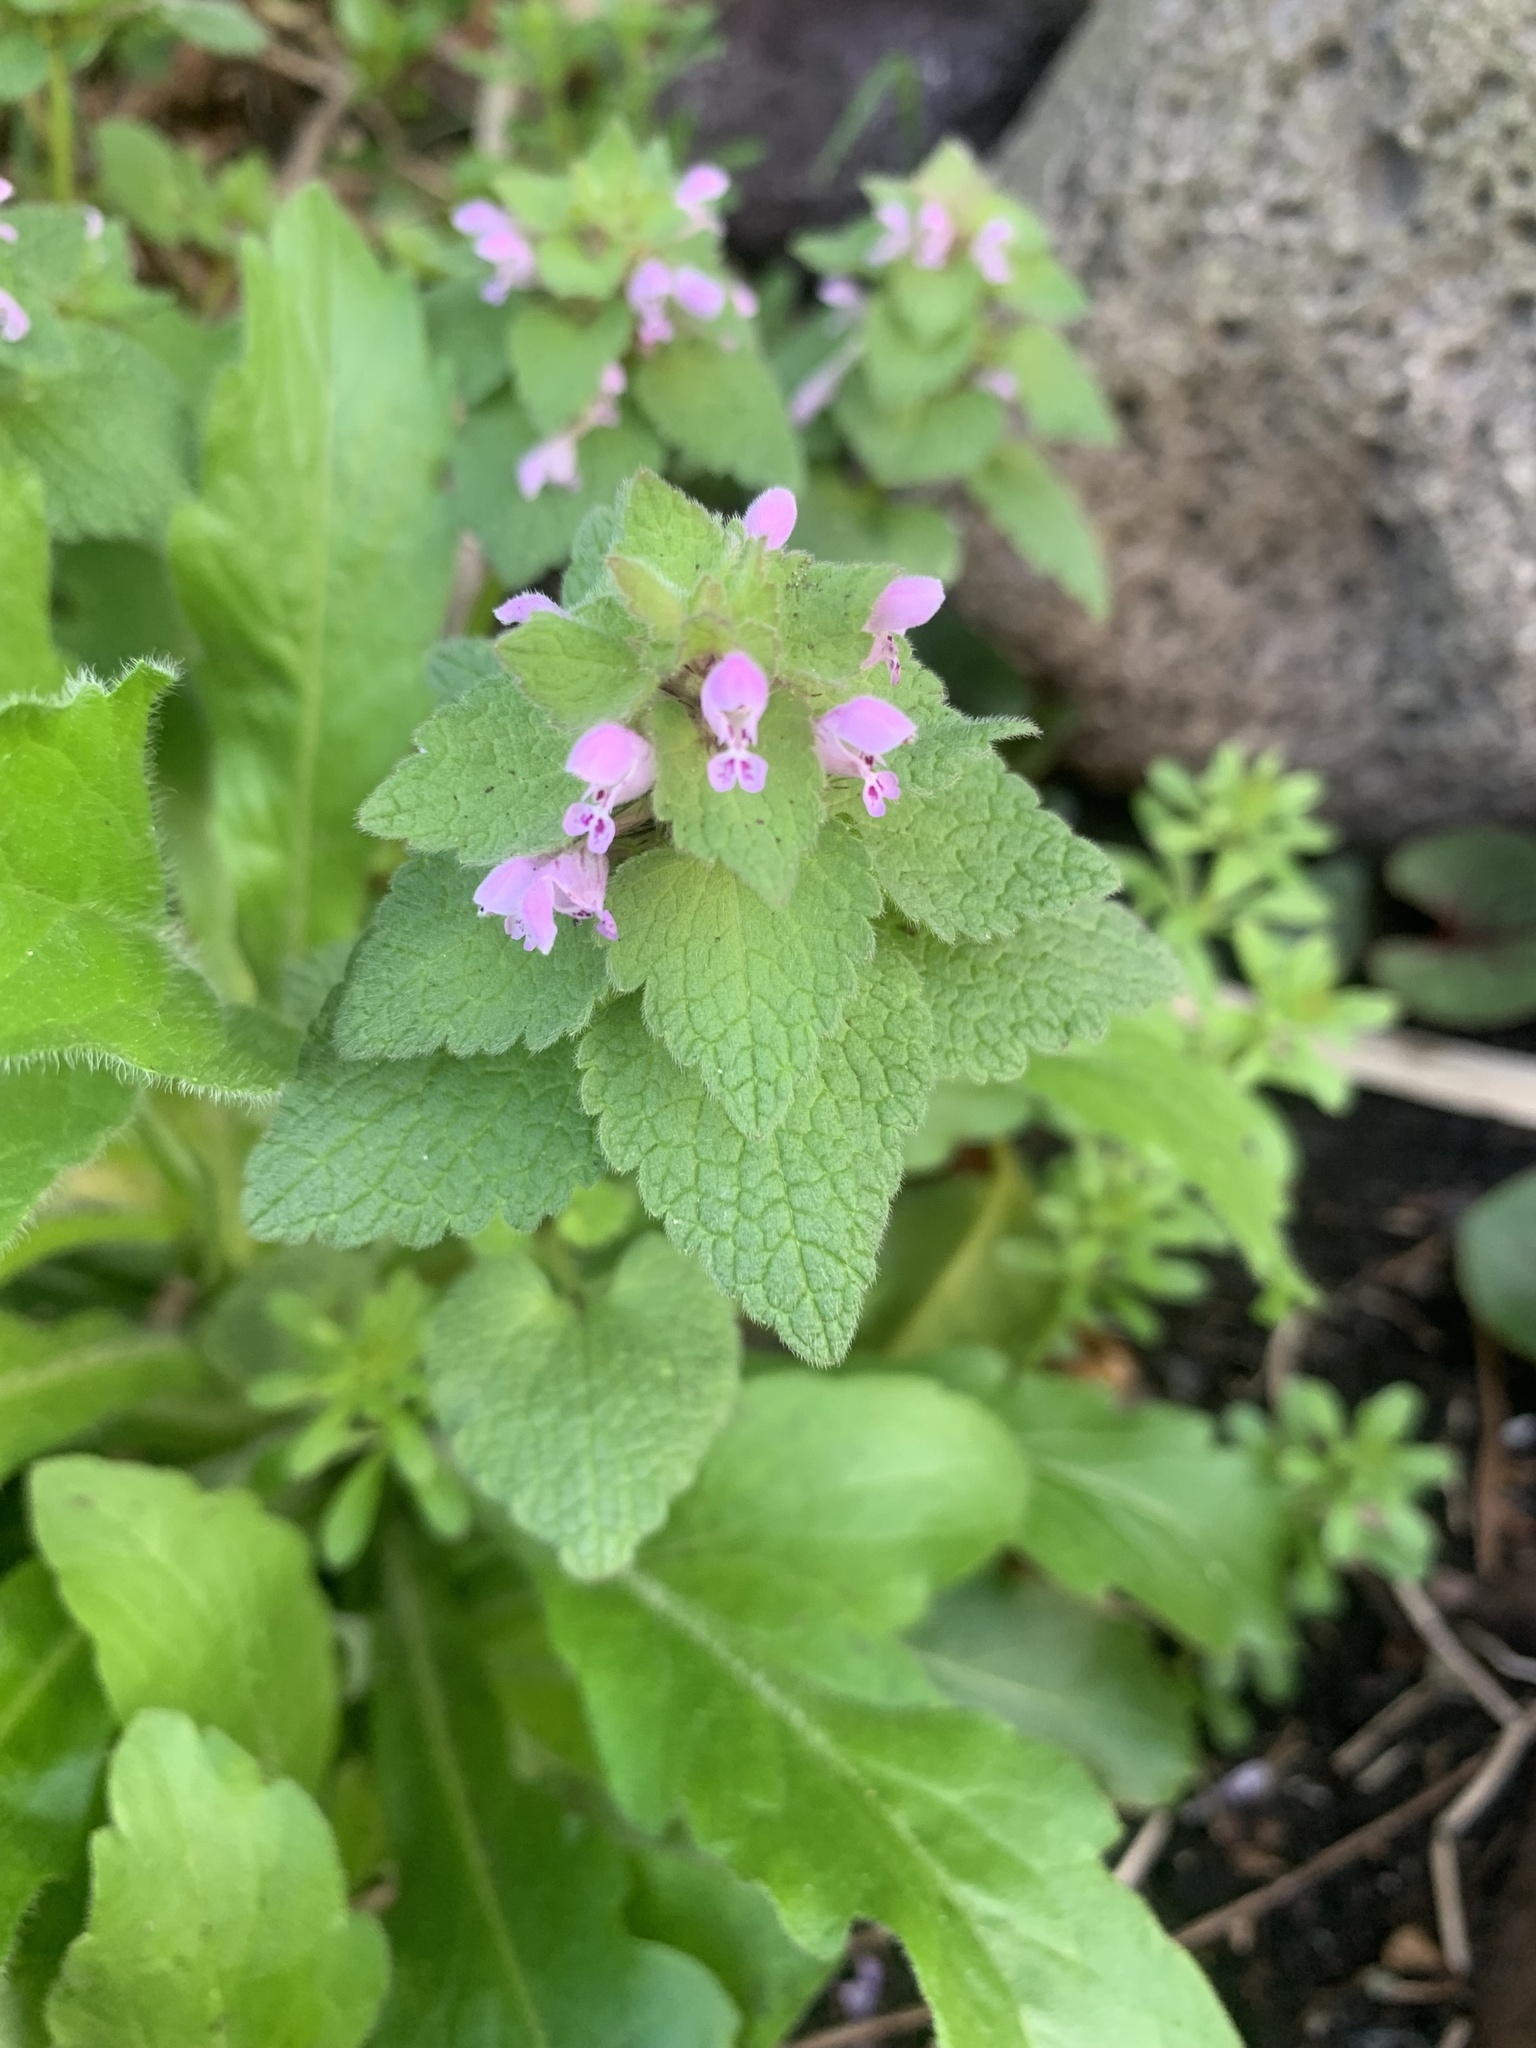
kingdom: Plantae
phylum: Tracheophyta
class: Magnoliopsida
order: Lamiales
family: Lamiaceae
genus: Lamium
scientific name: Lamium purpureum
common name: Red dead-nettle
